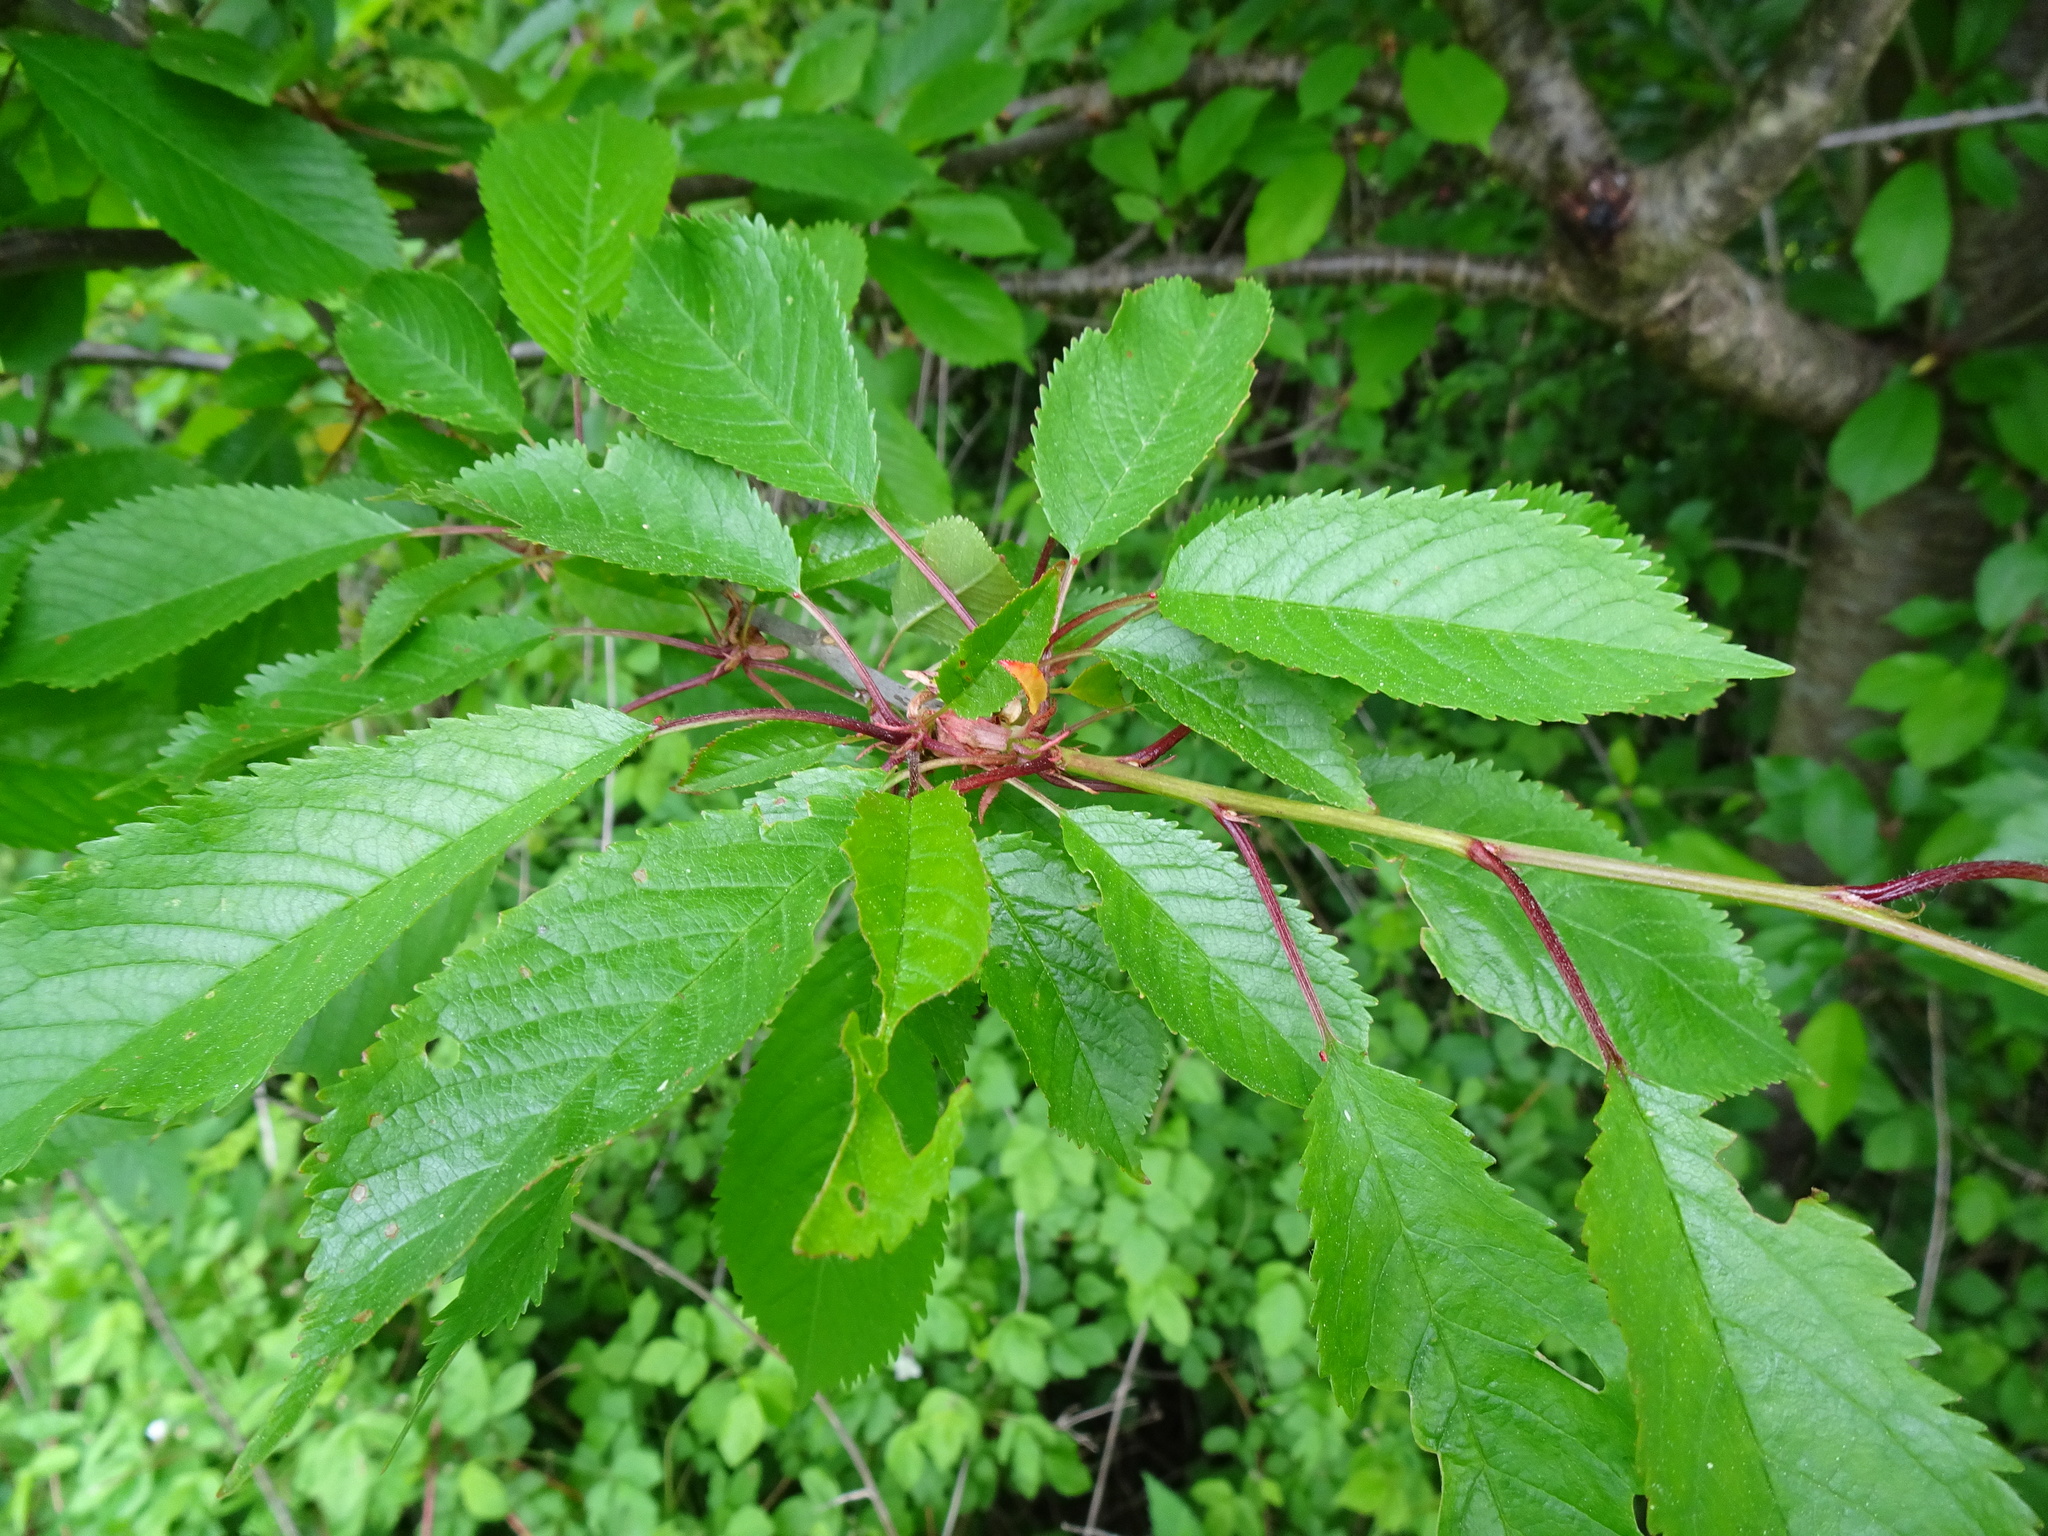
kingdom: Plantae
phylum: Tracheophyta
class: Magnoliopsida
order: Rosales
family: Rosaceae
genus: Prunus
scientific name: Prunus avium
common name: Sweet cherry
